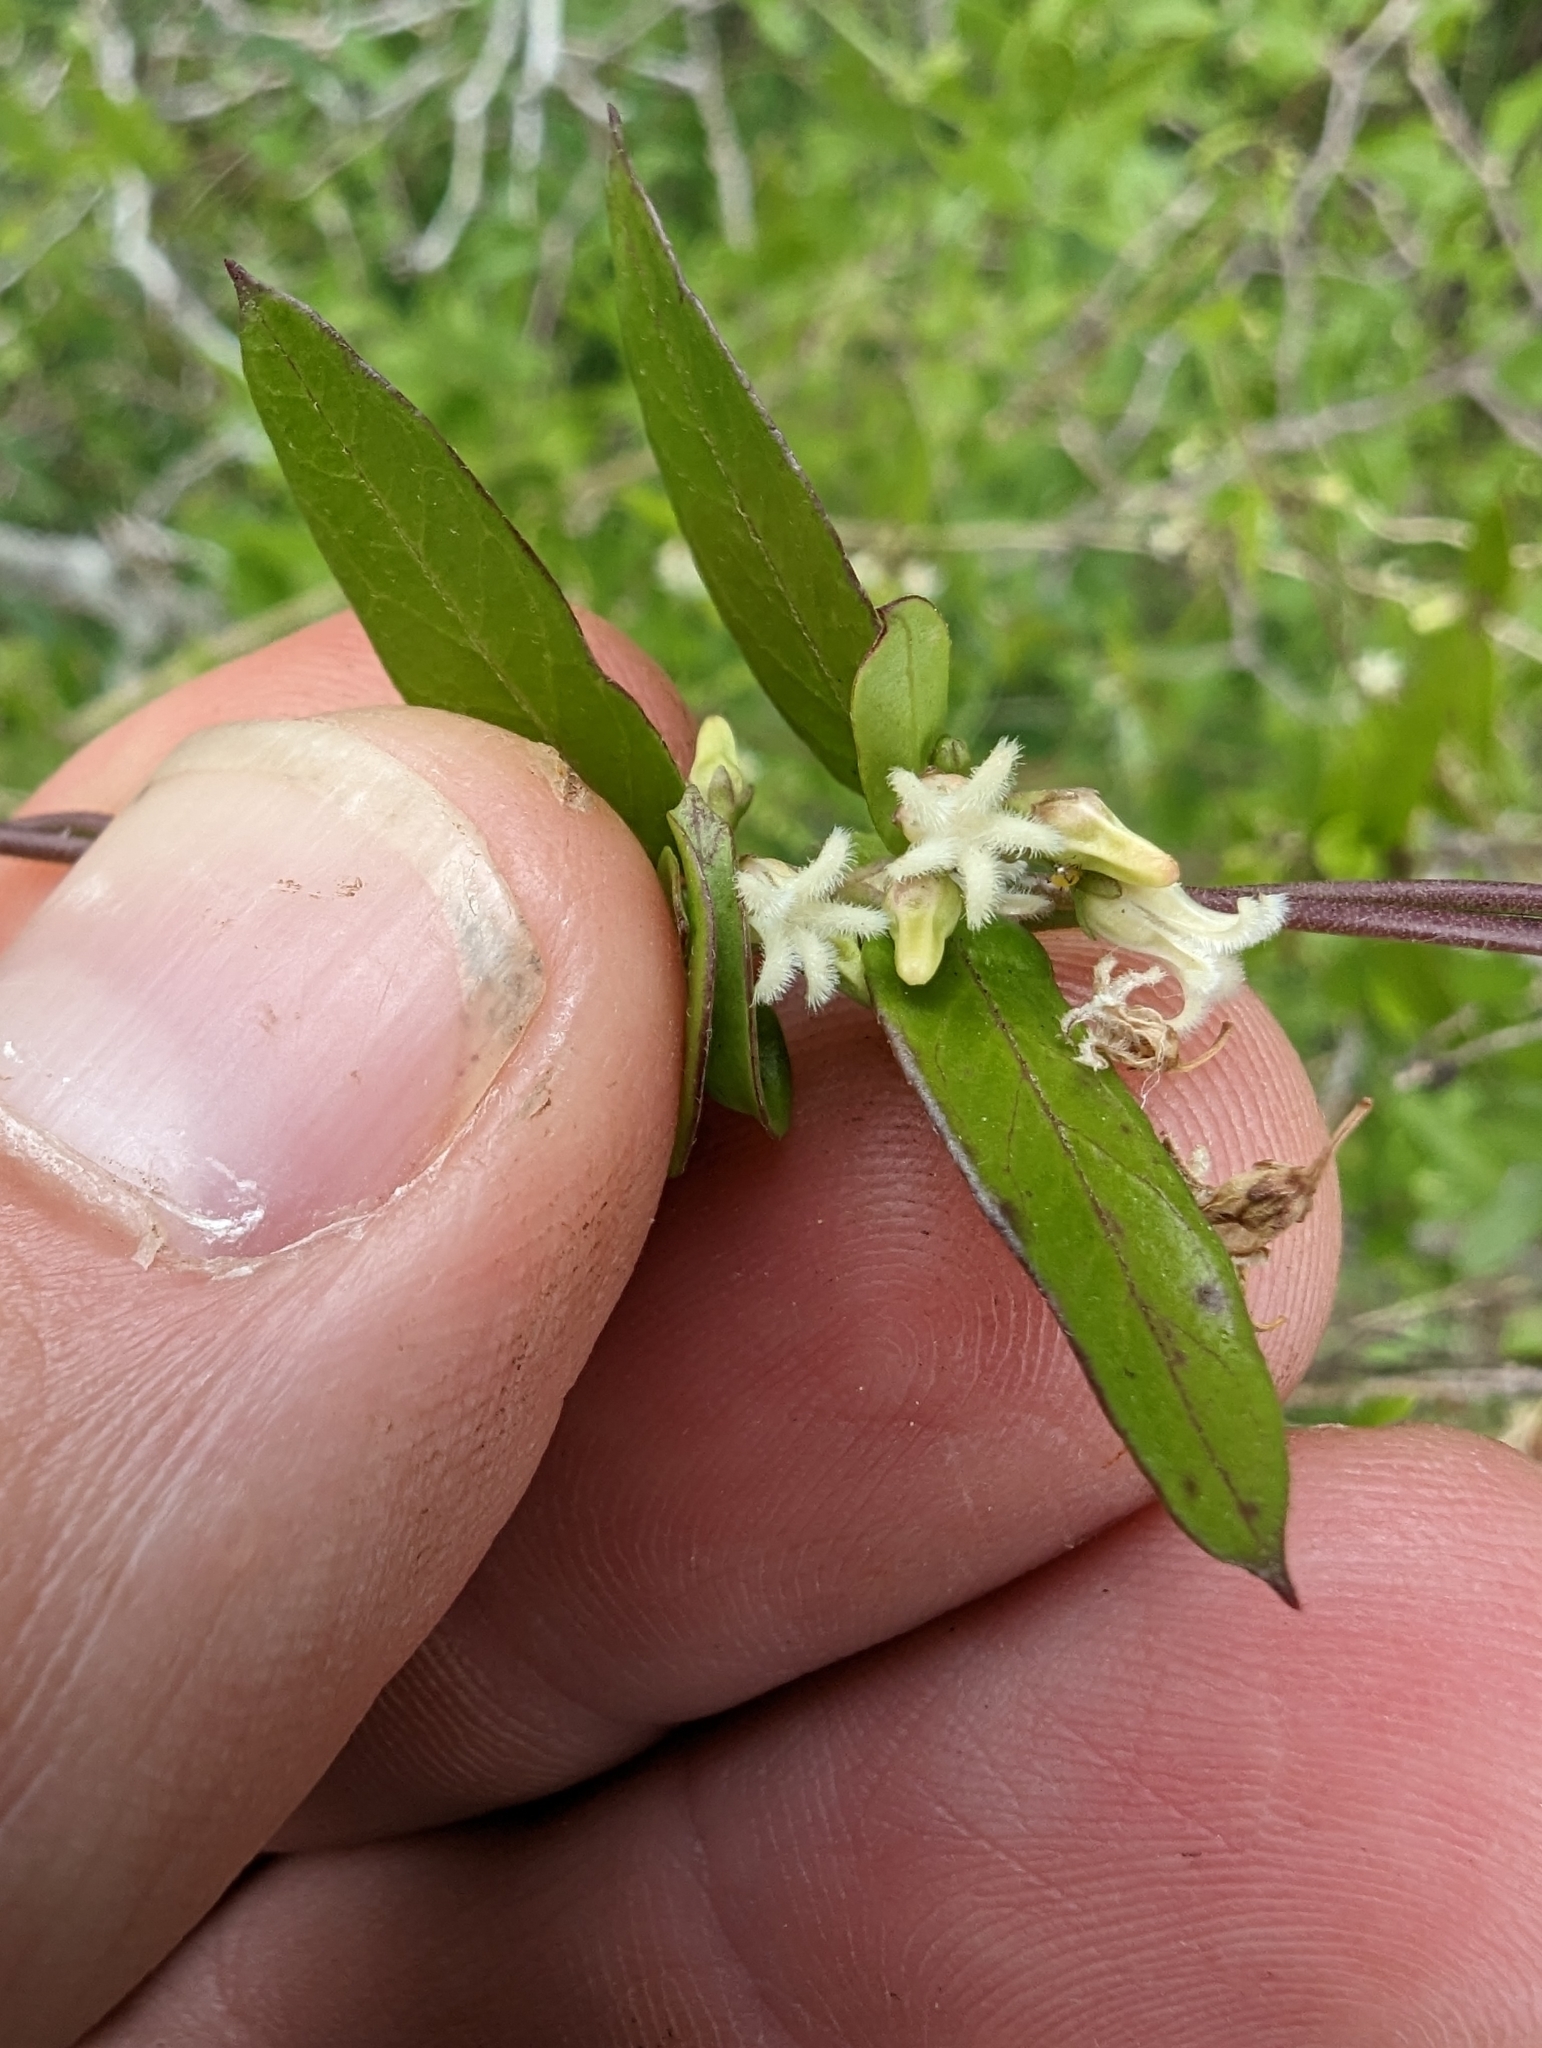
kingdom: Plantae
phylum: Tracheophyta
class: Magnoliopsida
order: Gentianales
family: Apocynaceae
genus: Metastelma
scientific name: Metastelma barbigerum
